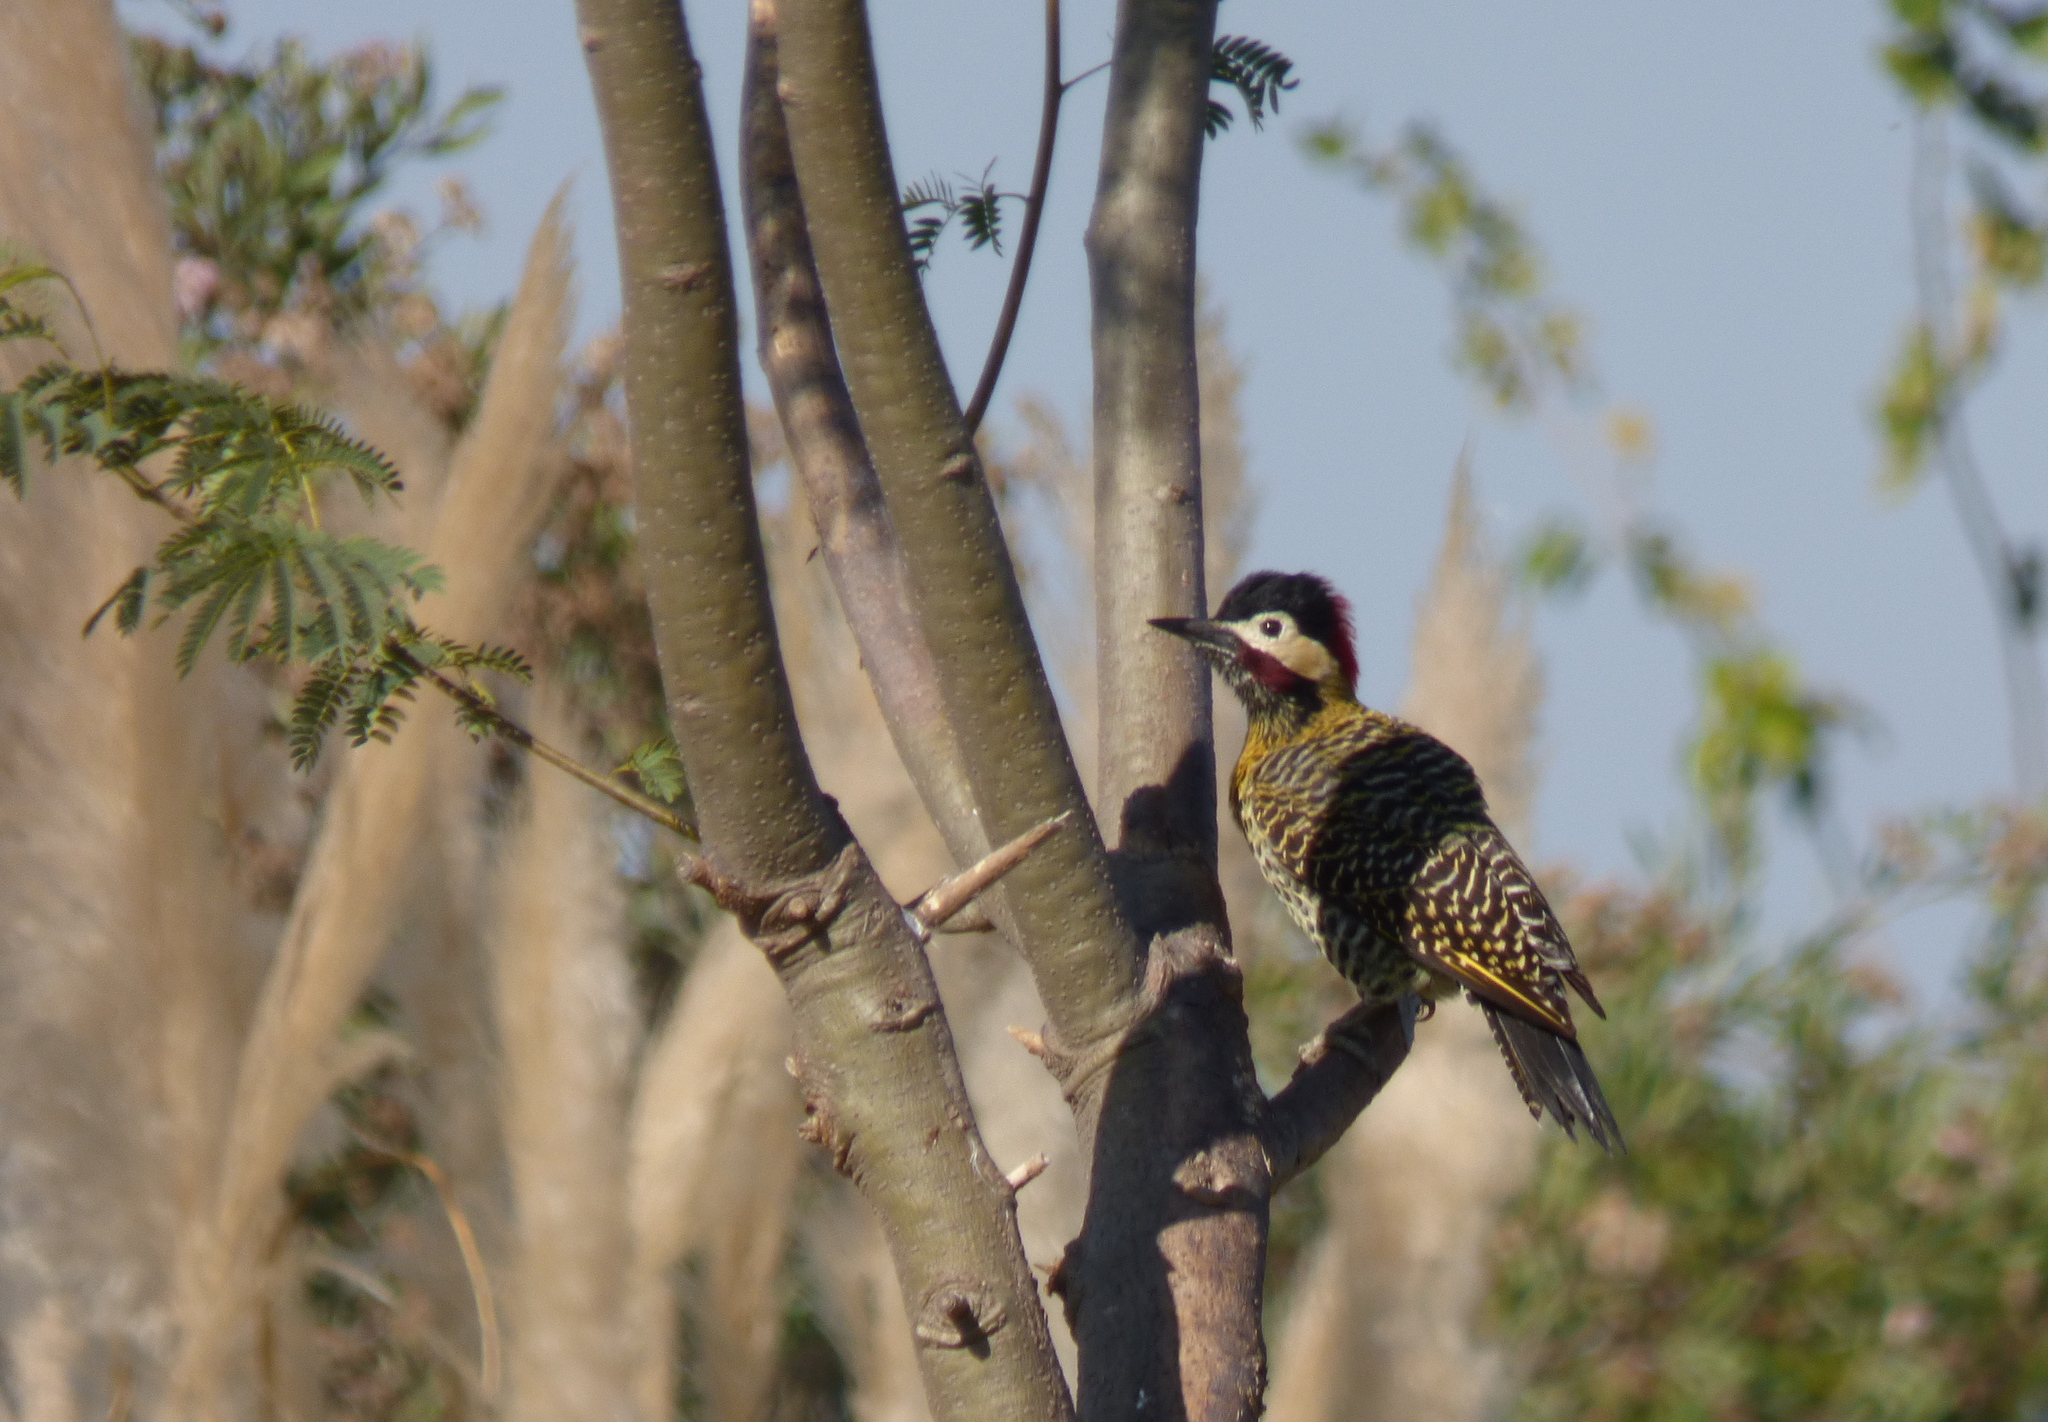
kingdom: Animalia
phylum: Chordata
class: Aves
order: Piciformes
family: Picidae
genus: Colaptes
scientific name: Colaptes melanochloros
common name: Green-barred woodpecker
